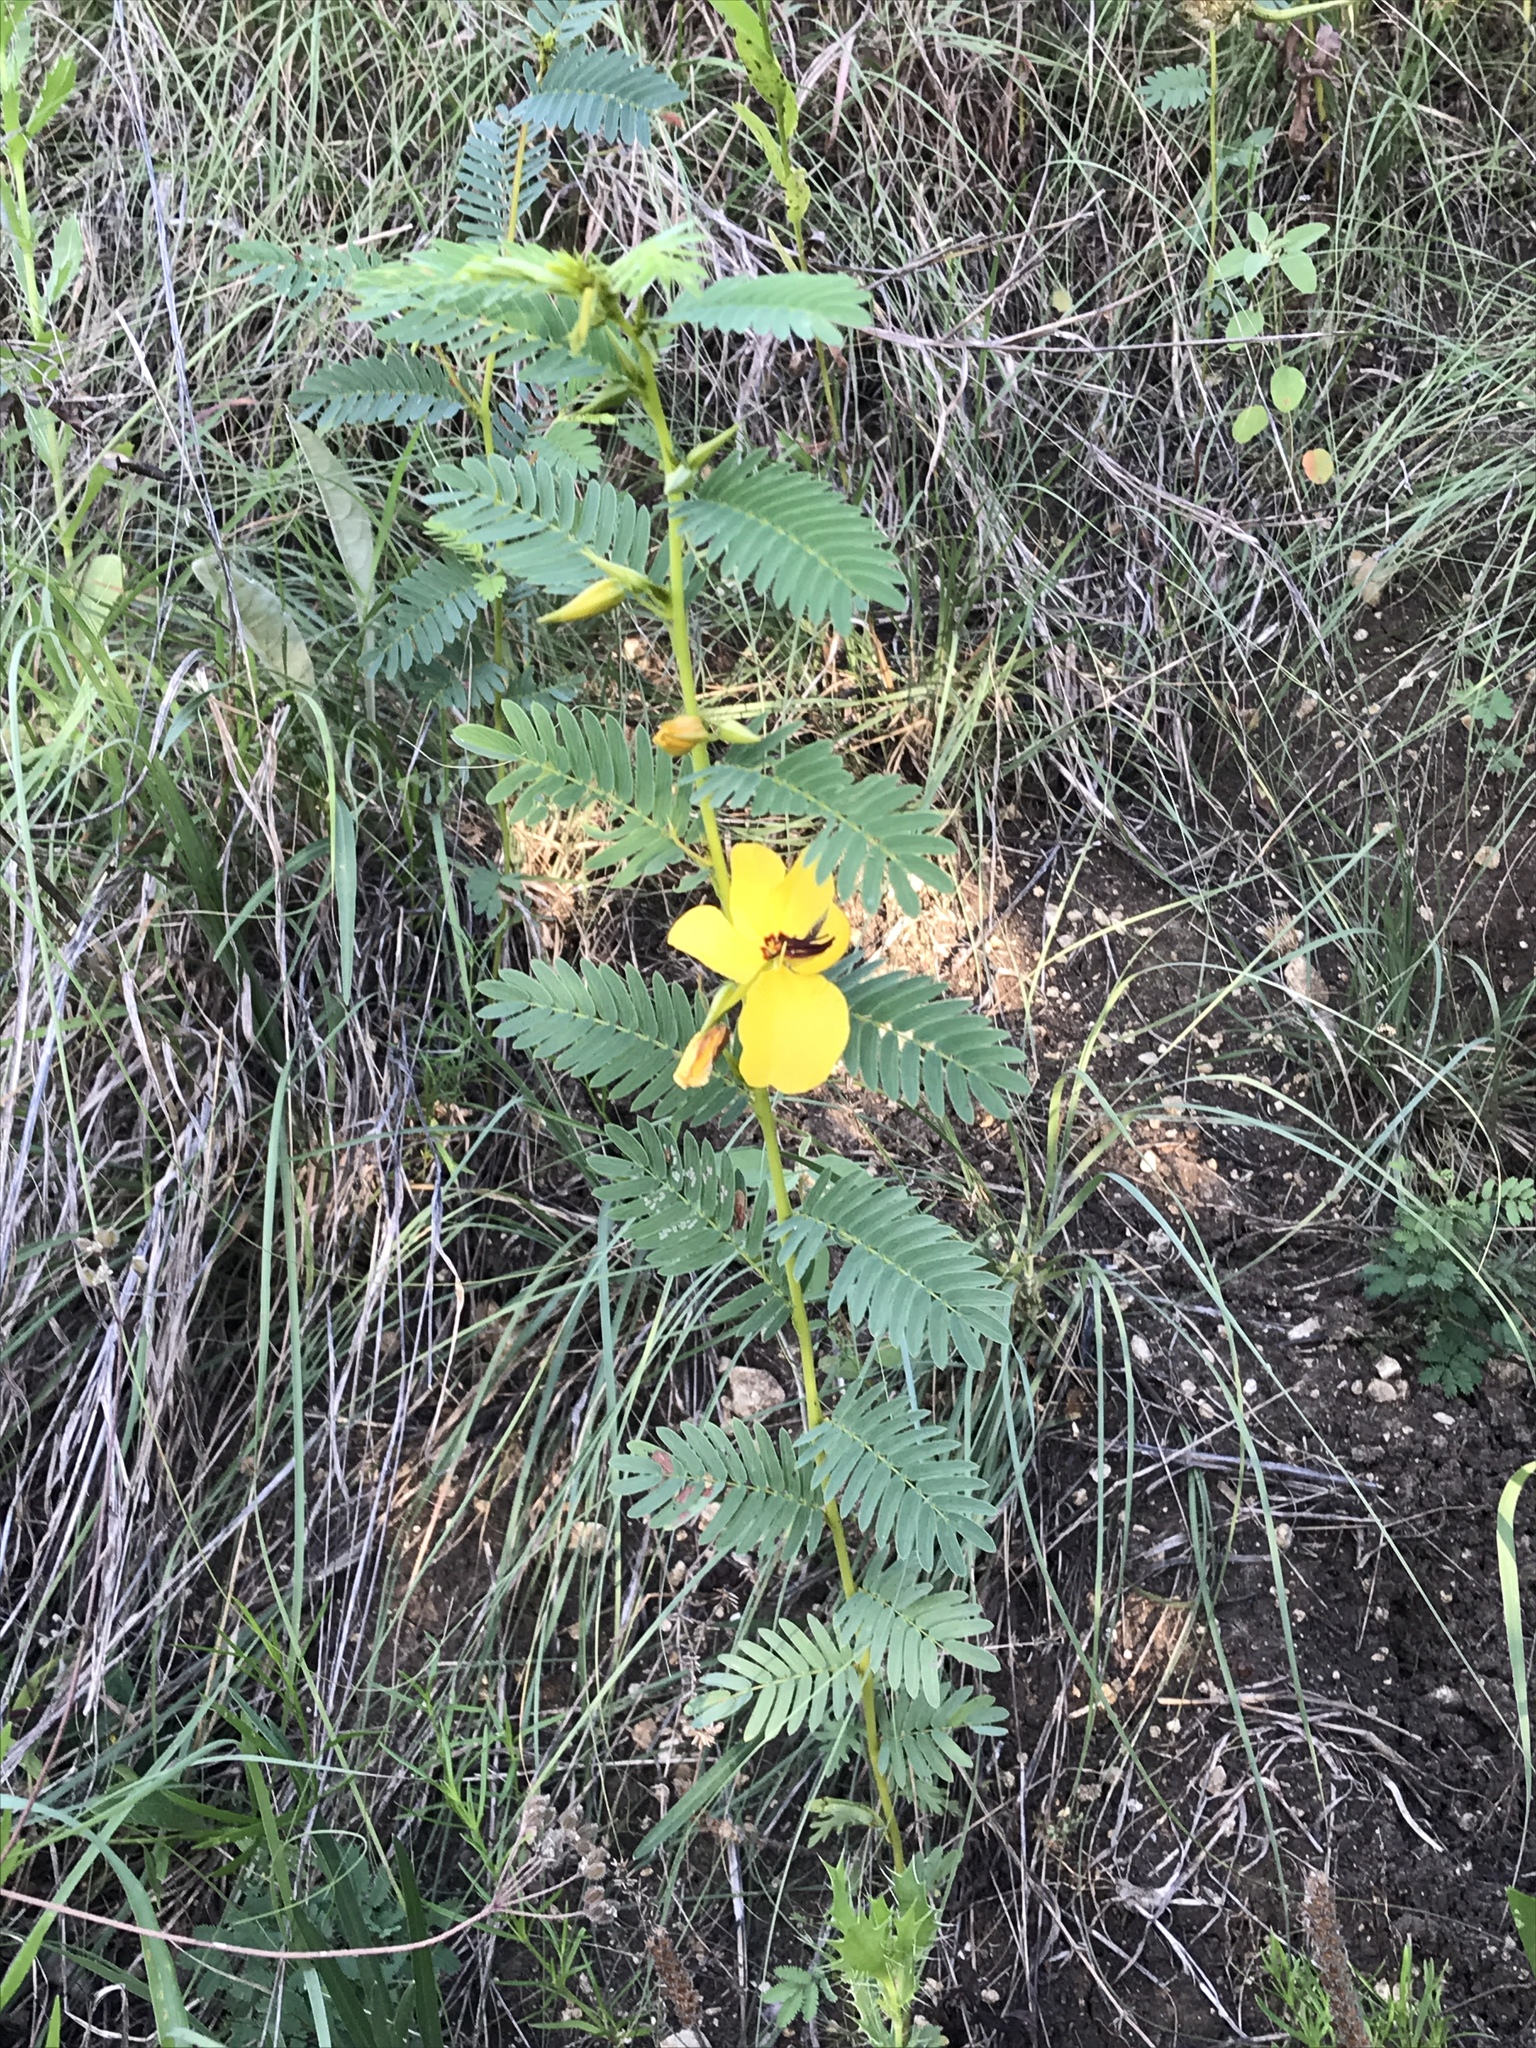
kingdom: Plantae
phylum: Tracheophyta
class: Magnoliopsida
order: Fabales
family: Fabaceae
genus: Chamaecrista
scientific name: Chamaecrista fasciculata
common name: Golden cassia
